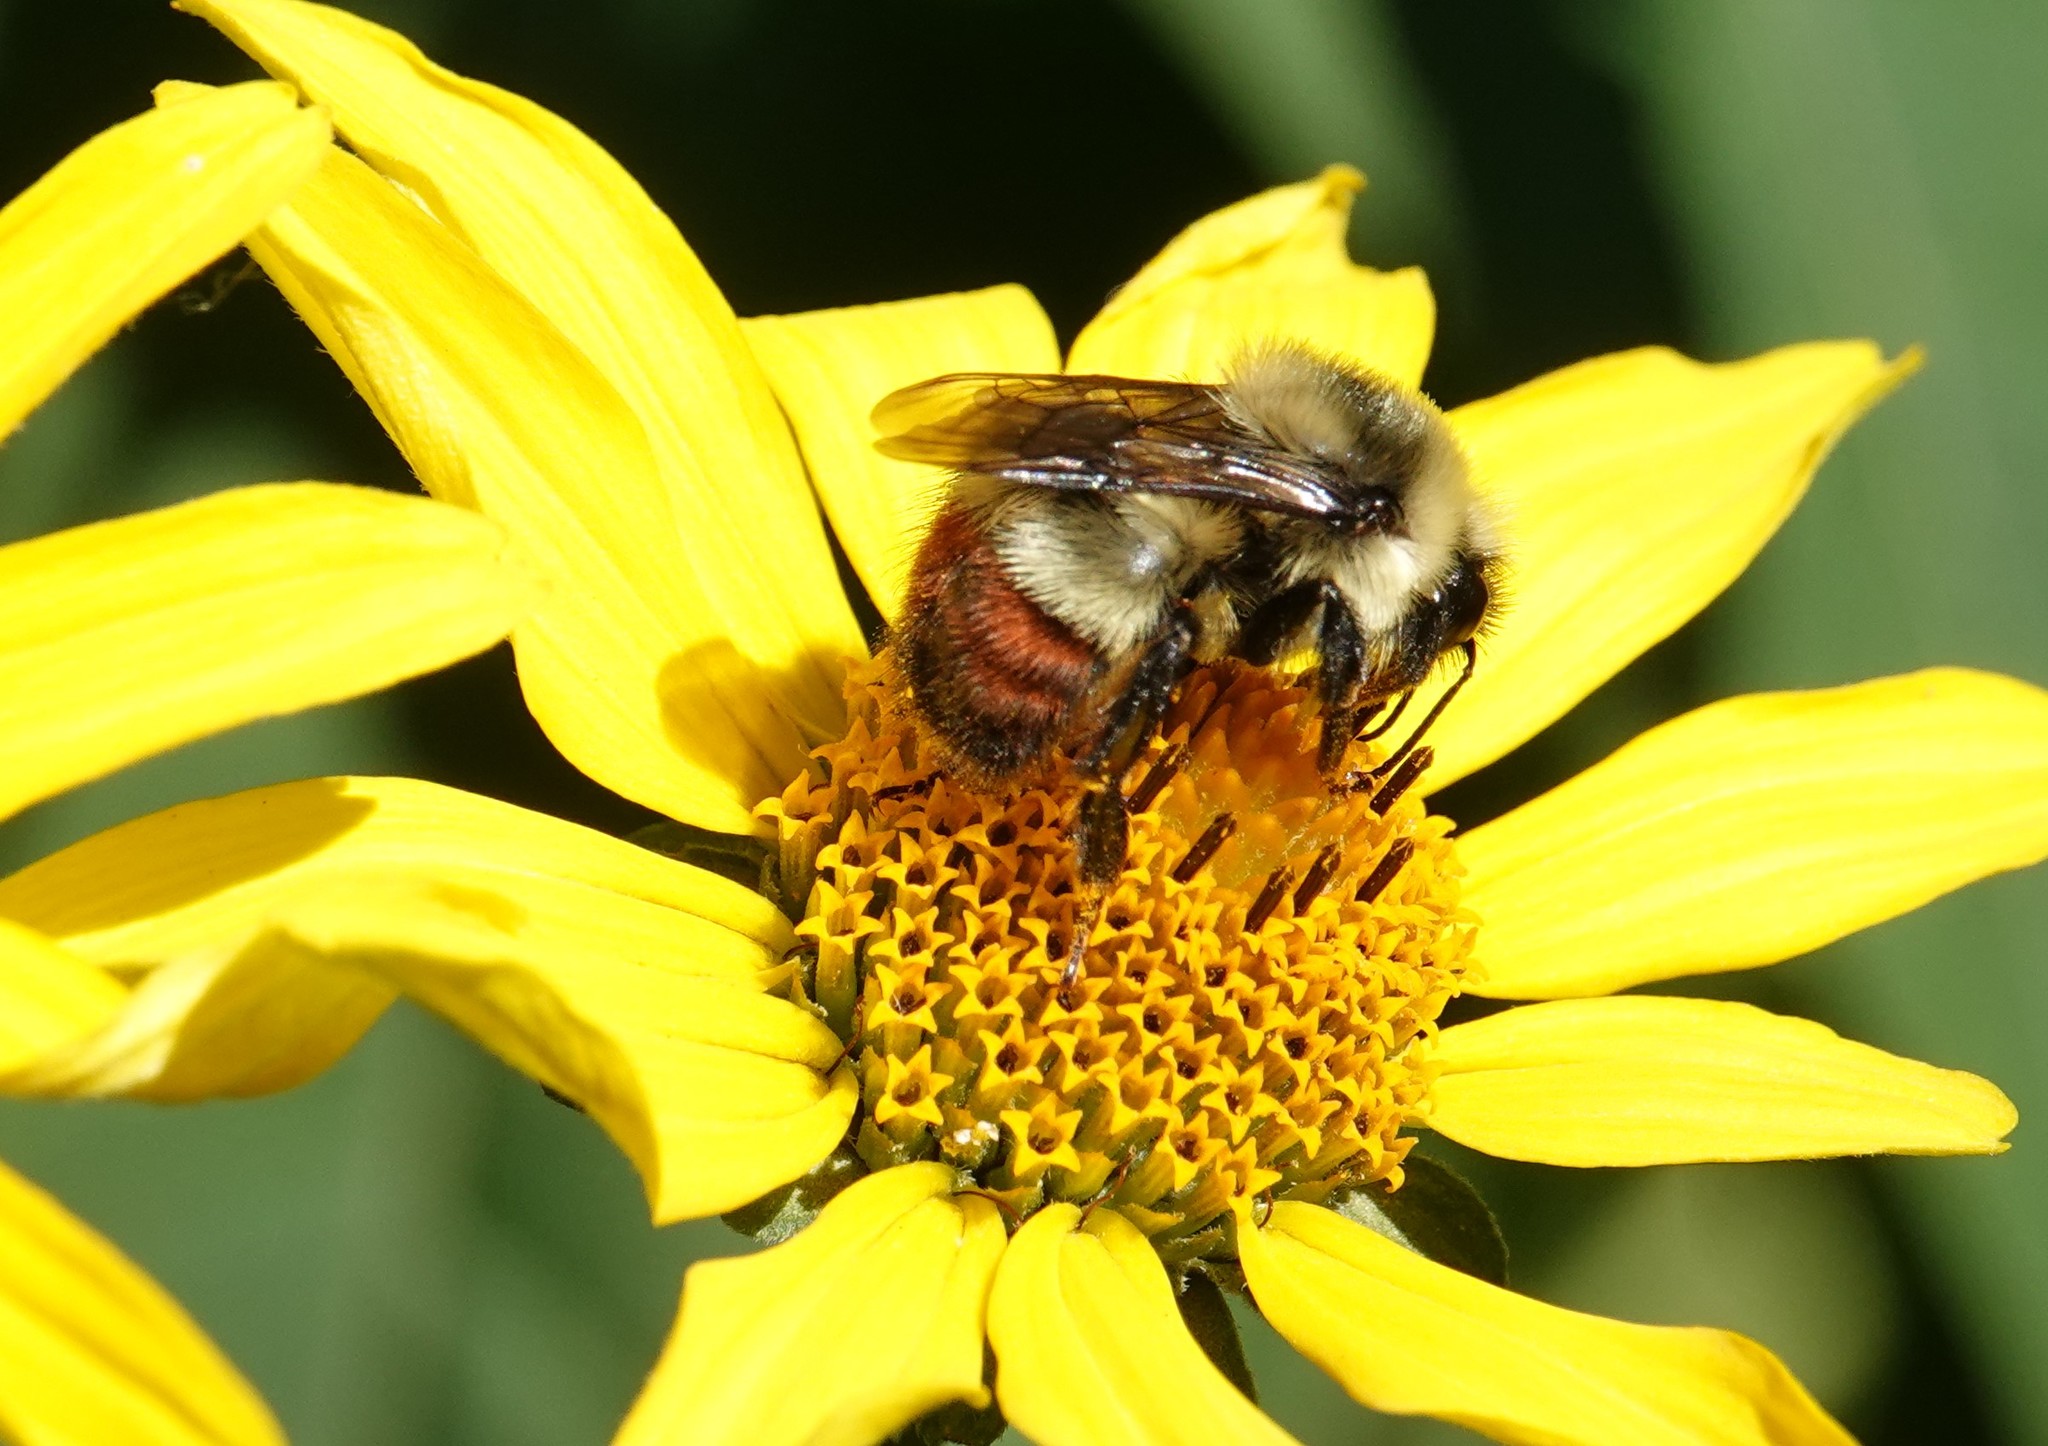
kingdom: Animalia
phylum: Arthropoda
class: Insecta
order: Hymenoptera
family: Apidae
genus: Bombus
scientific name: Bombus rufocinctus
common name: Red-belted bumble bee
